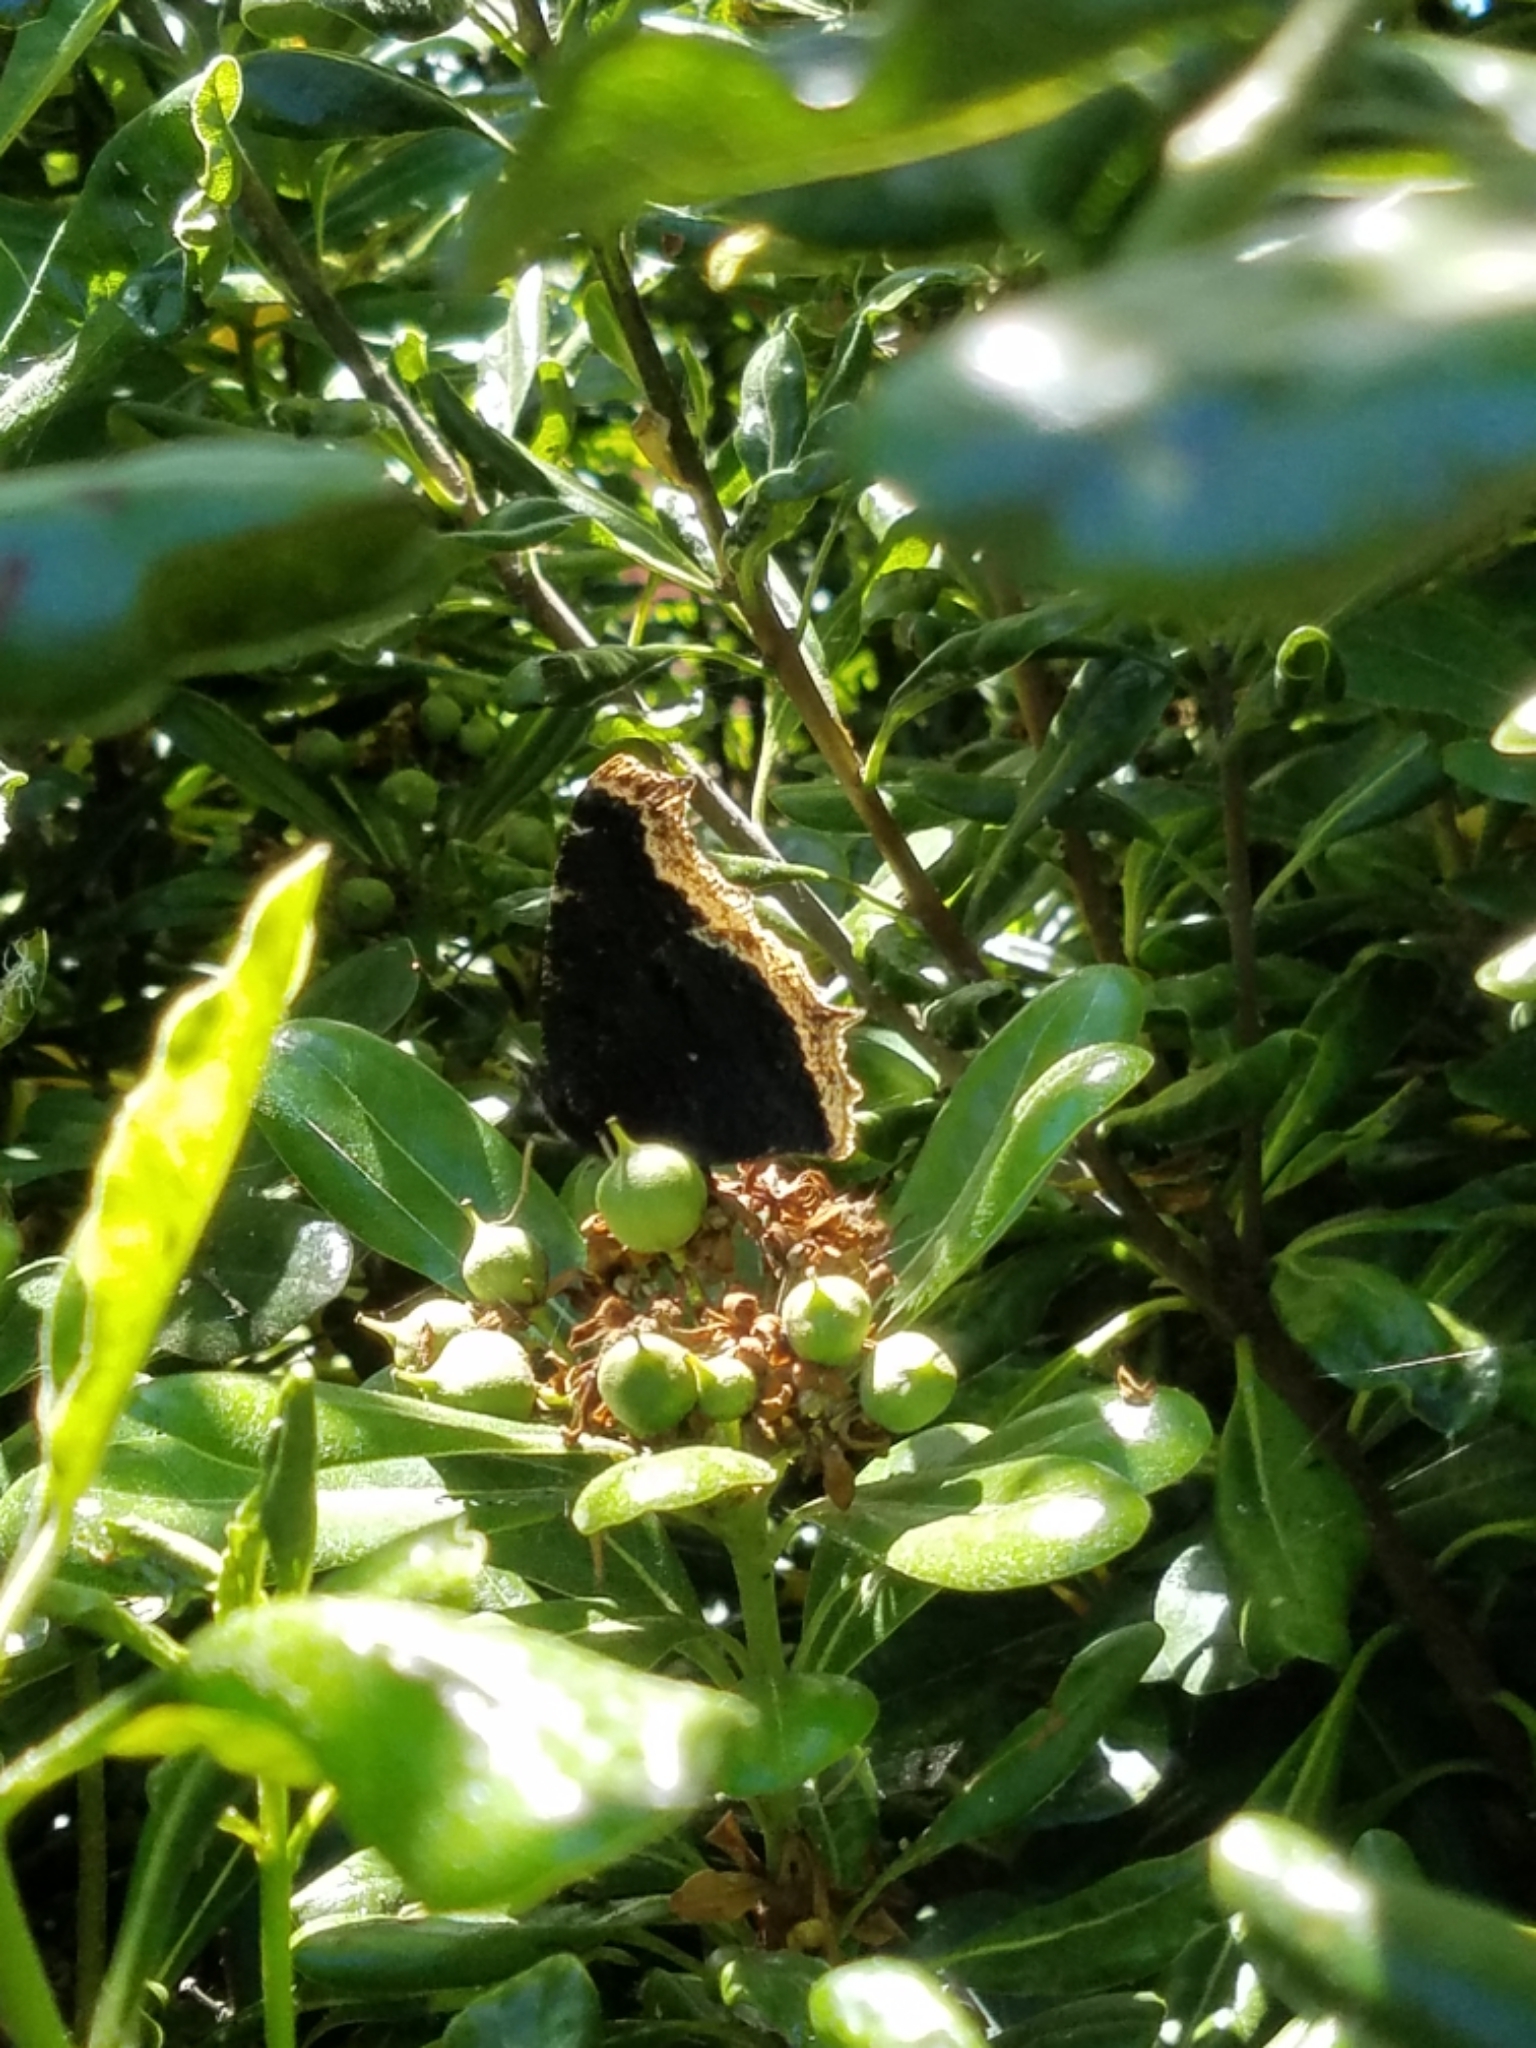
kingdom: Animalia
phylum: Arthropoda
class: Insecta
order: Lepidoptera
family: Nymphalidae
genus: Nymphalis
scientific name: Nymphalis antiopa
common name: Camberwell beauty
